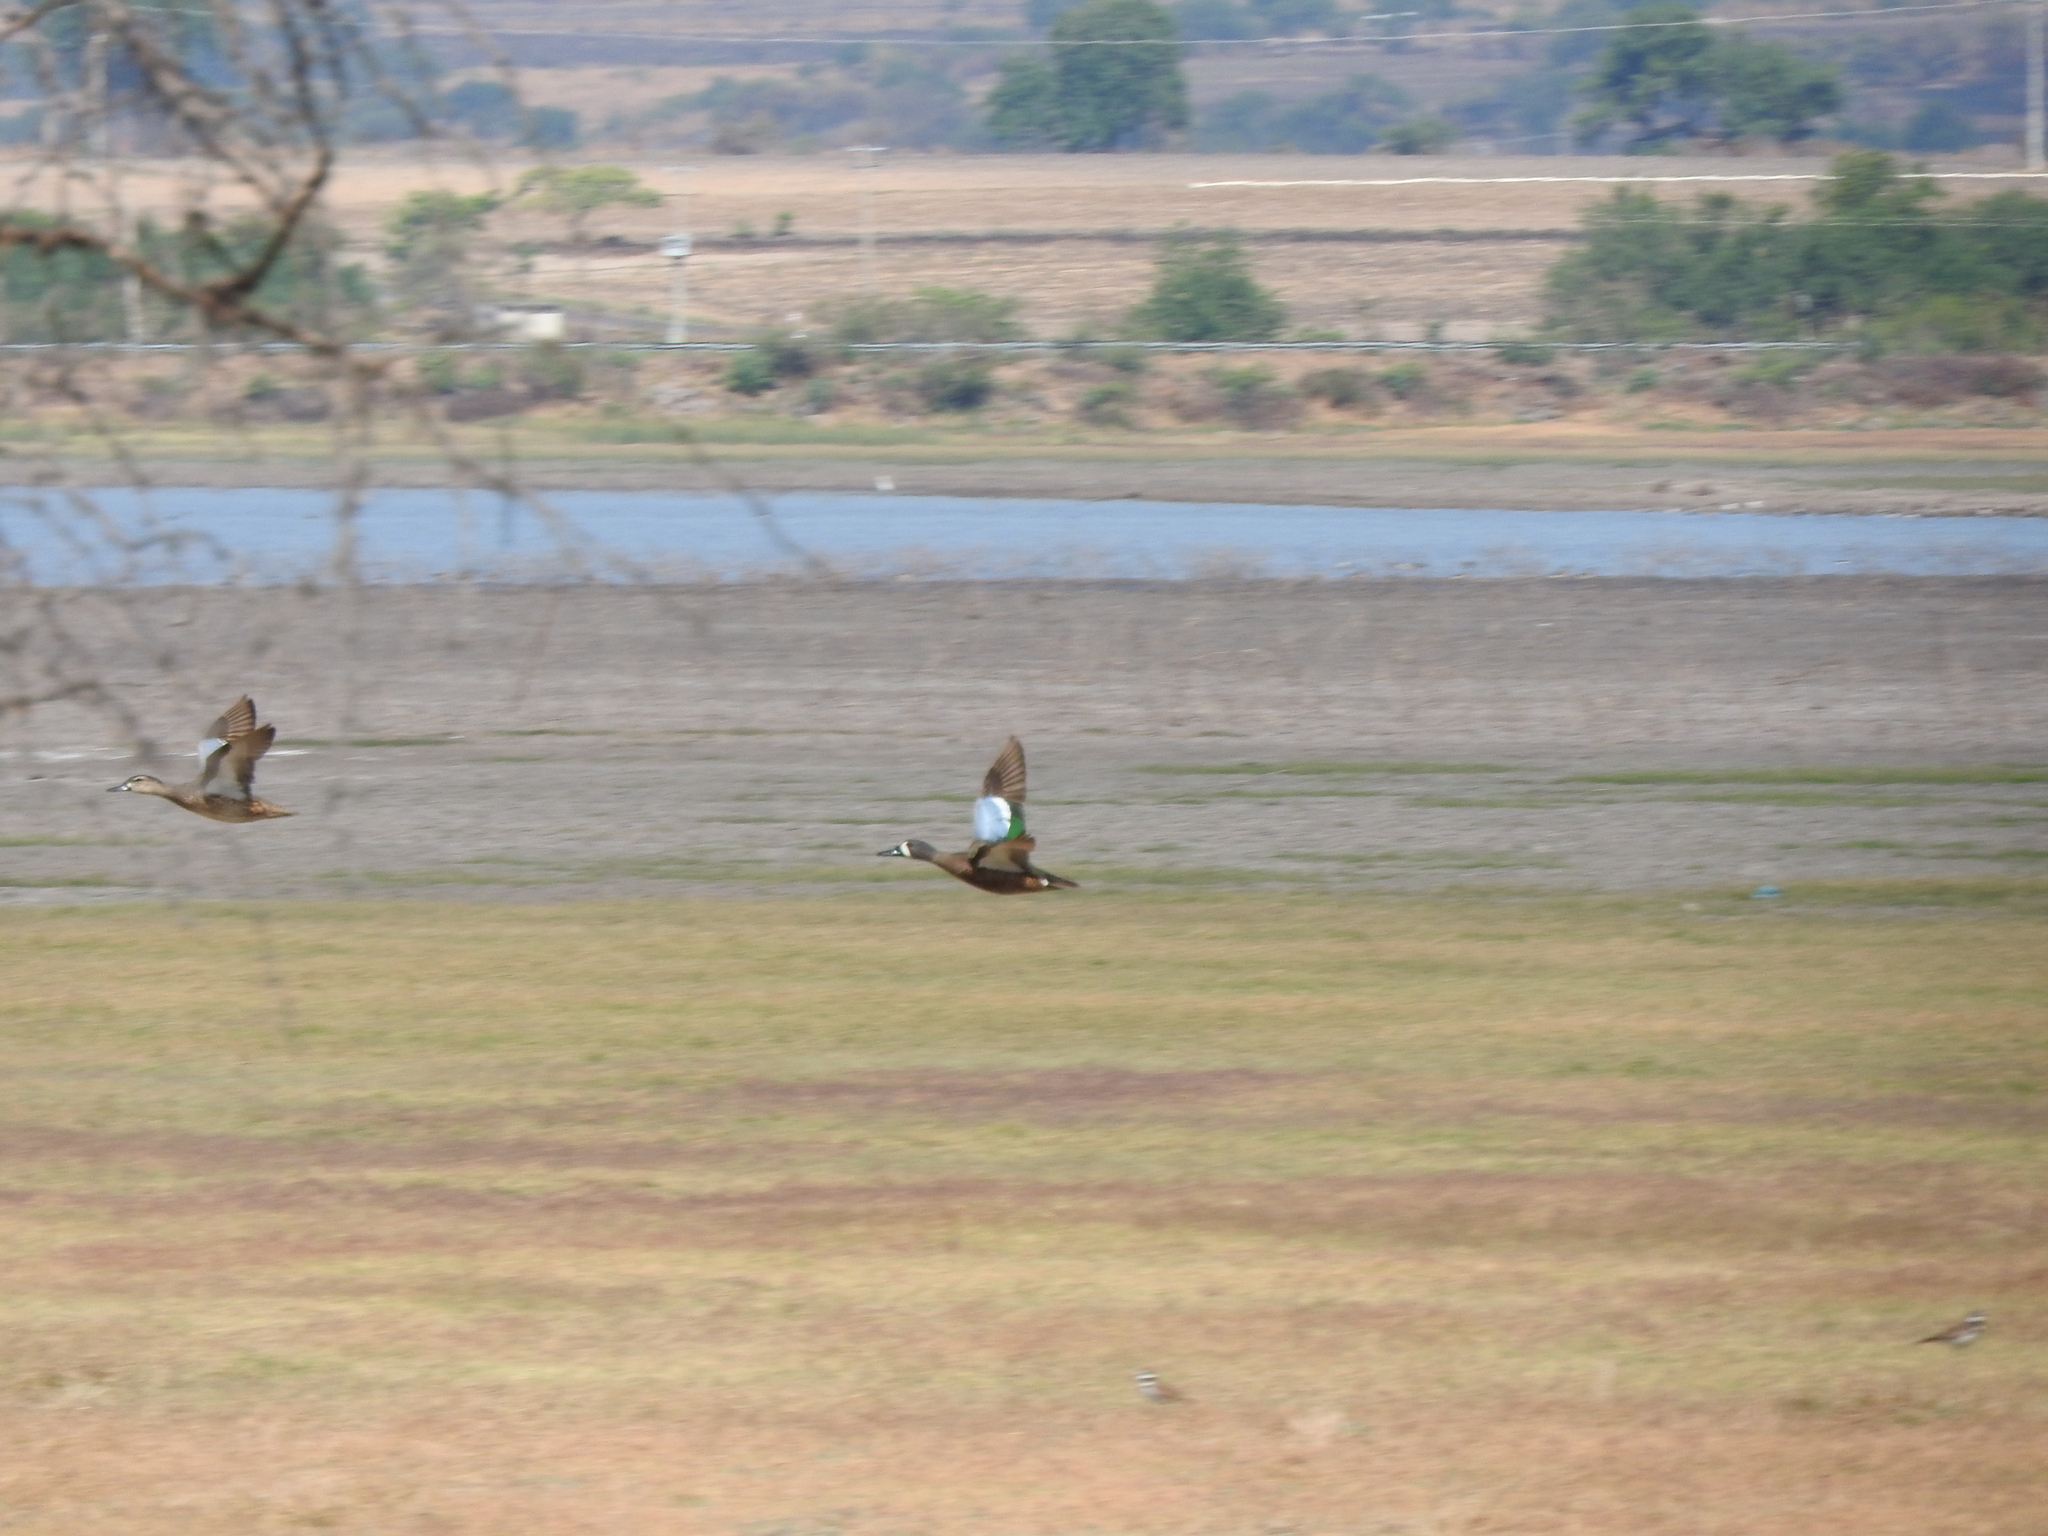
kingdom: Animalia
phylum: Chordata
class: Aves
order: Charadriiformes
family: Charadriidae
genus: Charadrius
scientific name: Charadrius vociferus
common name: Killdeer
